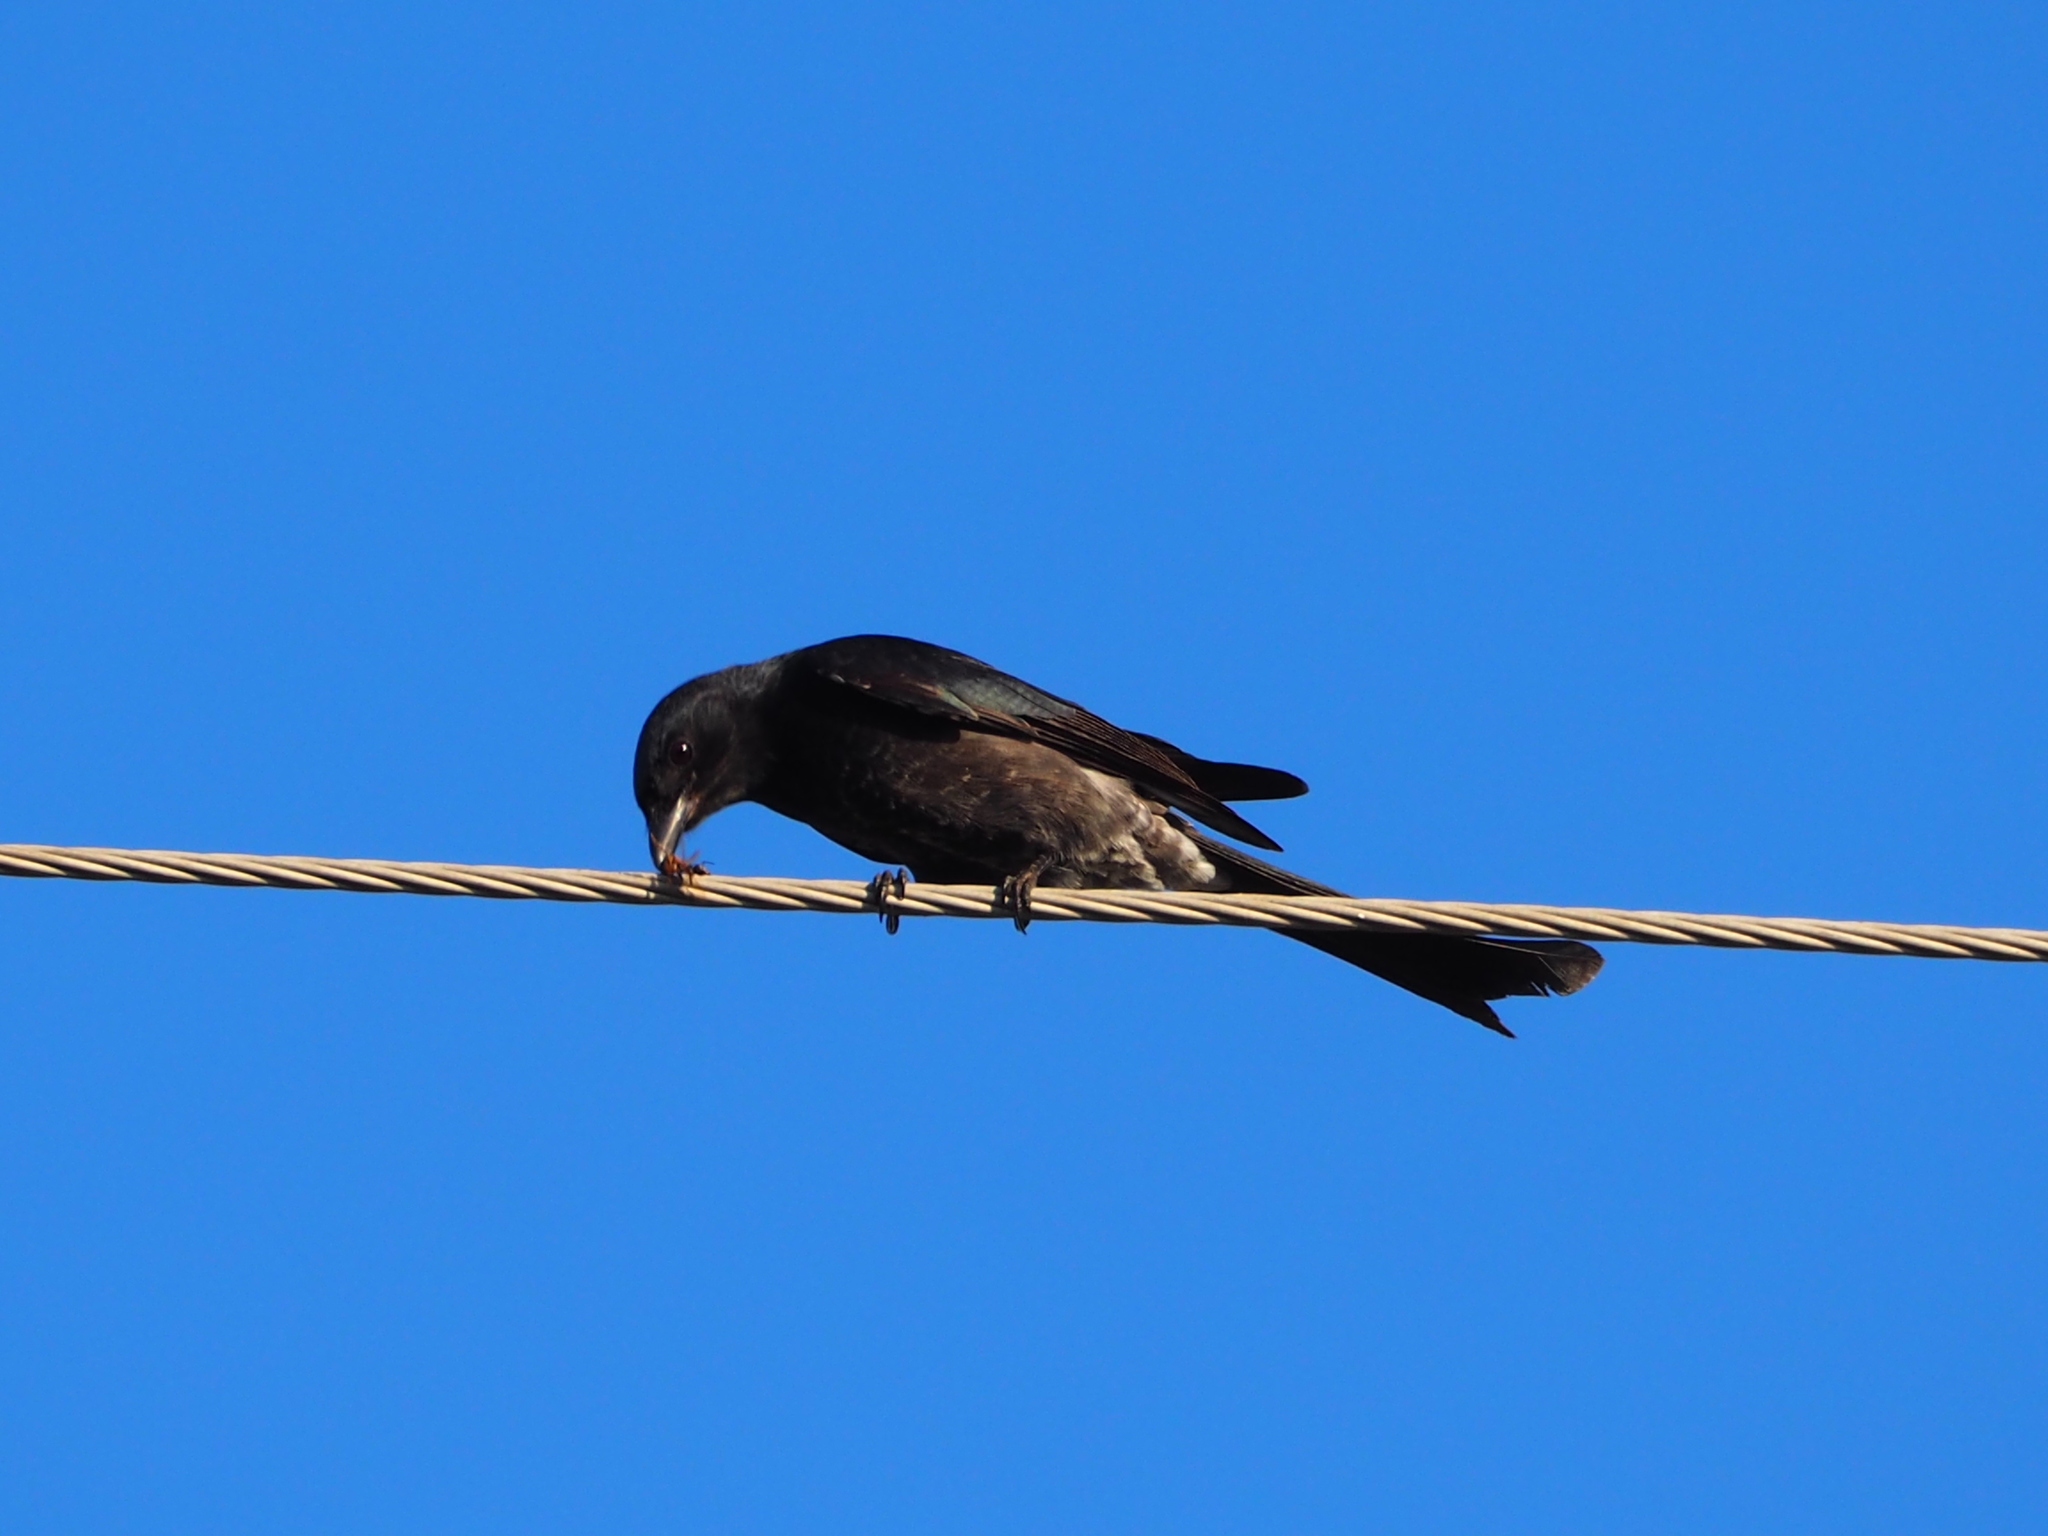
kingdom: Animalia
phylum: Chordata
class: Aves
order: Passeriformes
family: Dicruridae
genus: Dicrurus
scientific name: Dicrurus macrocercus
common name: Black drongo
